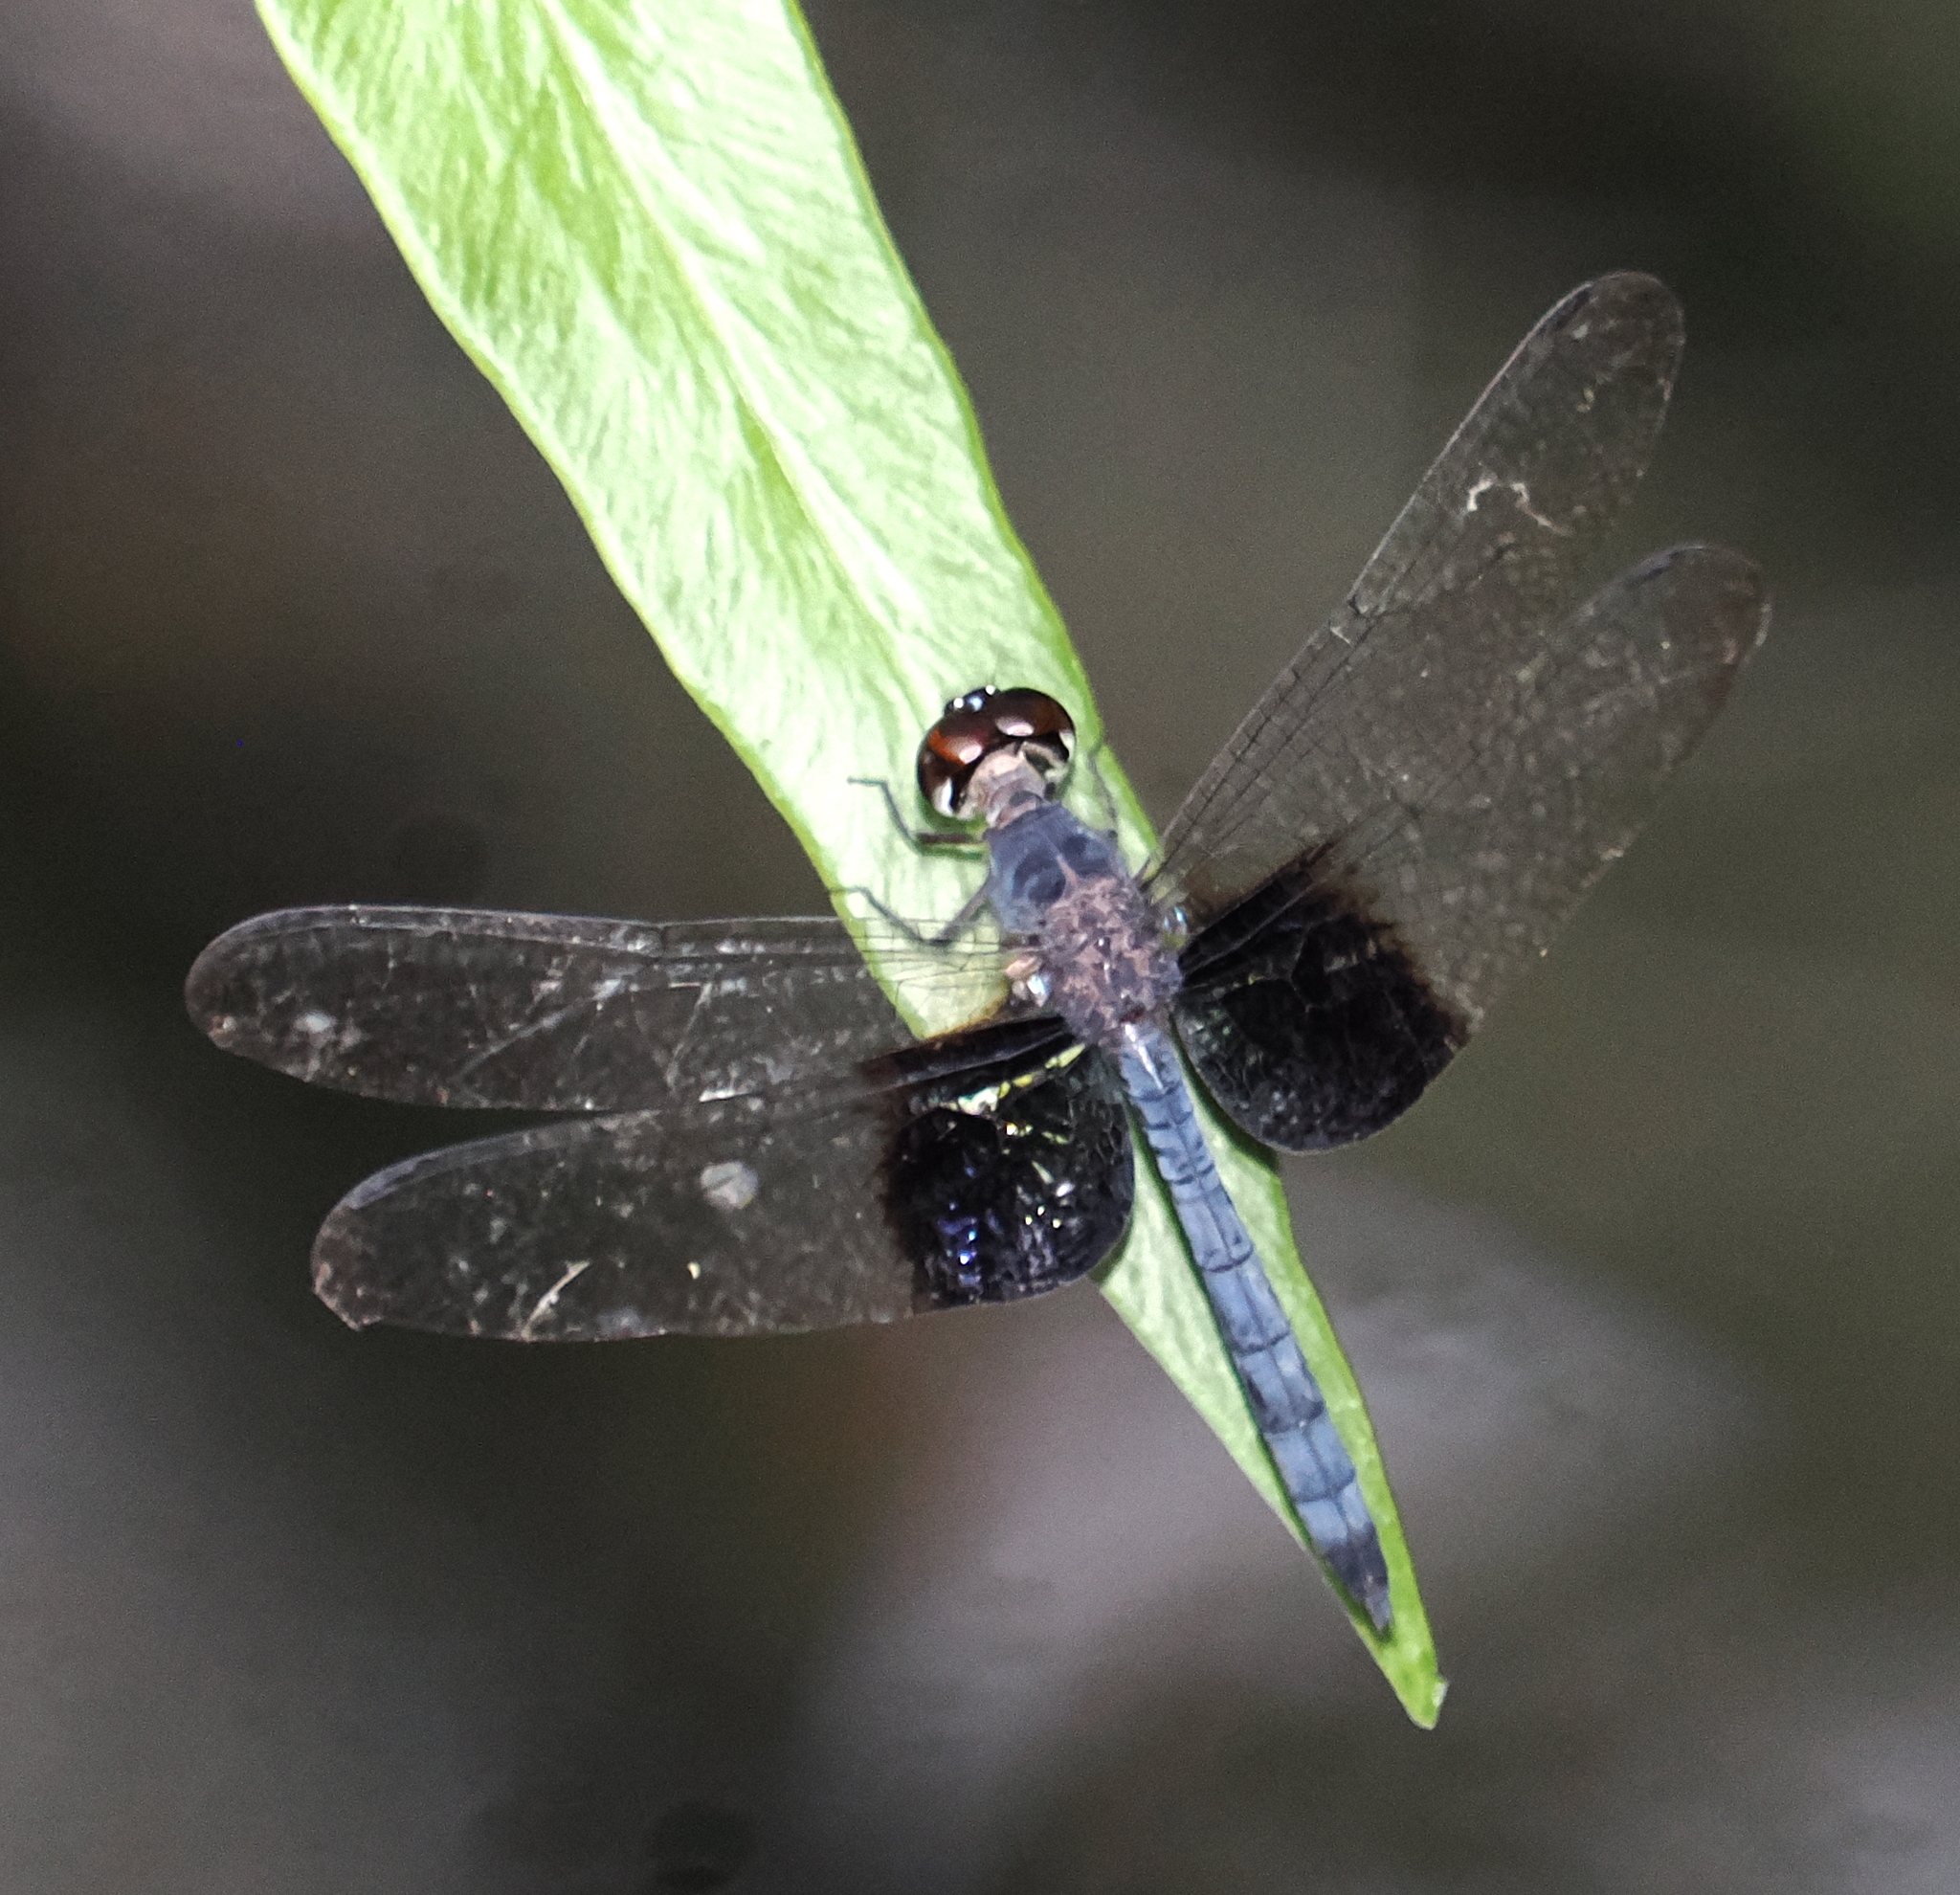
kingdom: Animalia
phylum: Arthropoda
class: Insecta
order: Odonata
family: Libellulidae
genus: Tyriobapta
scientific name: Tyriobapta torrida
